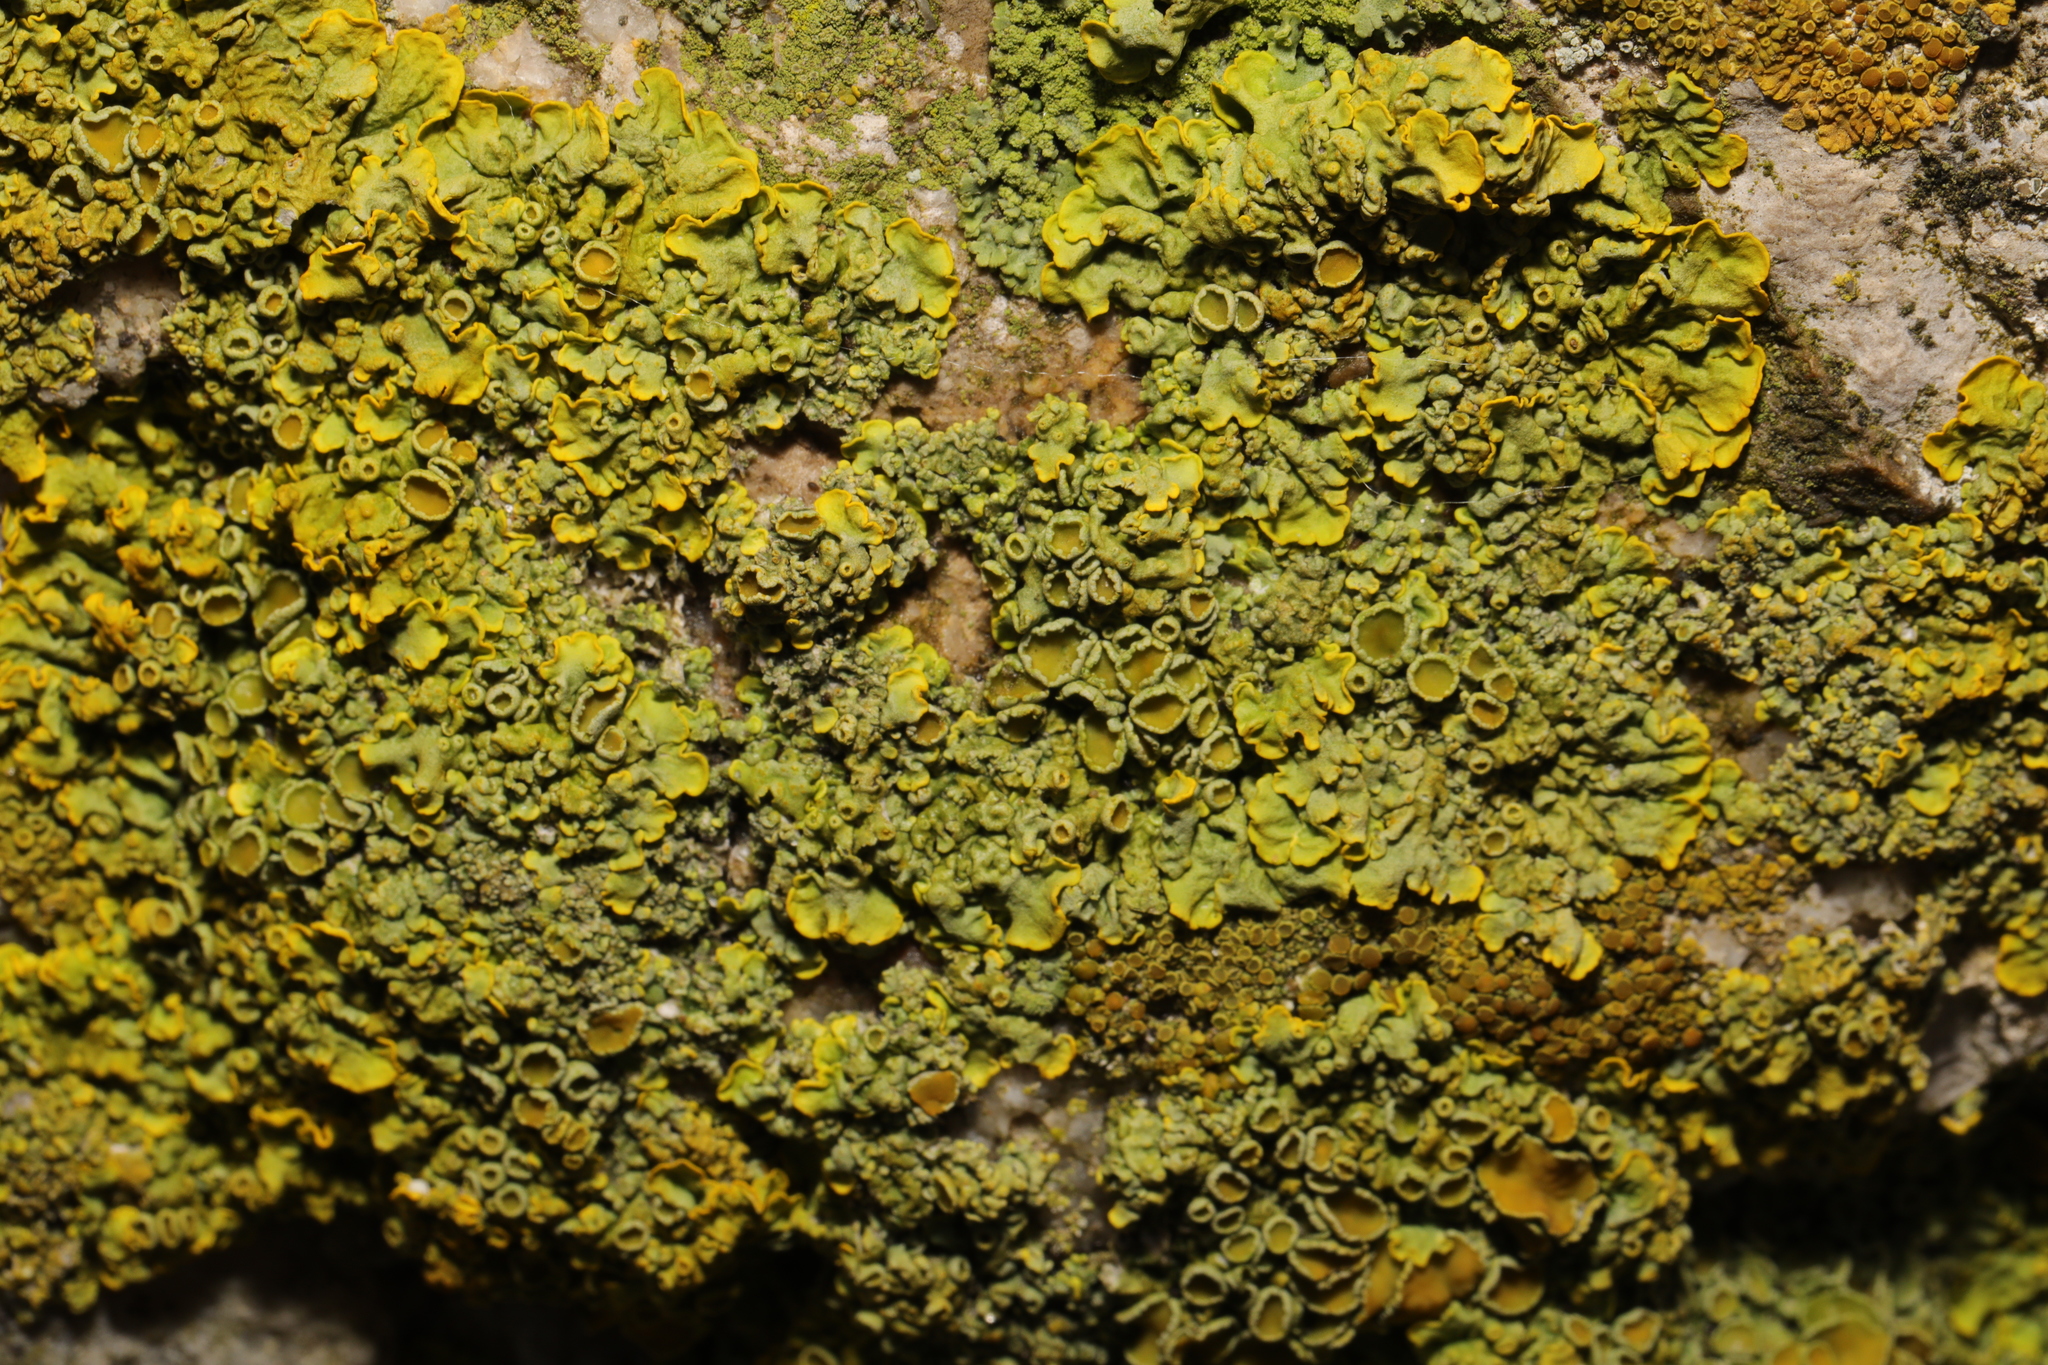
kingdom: Fungi
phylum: Ascomycota
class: Lecanoromycetes
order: Teloschistales
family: Teloschistaceae
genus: Xanthoria
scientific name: Xanthoria parietina
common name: Common orange lichen
